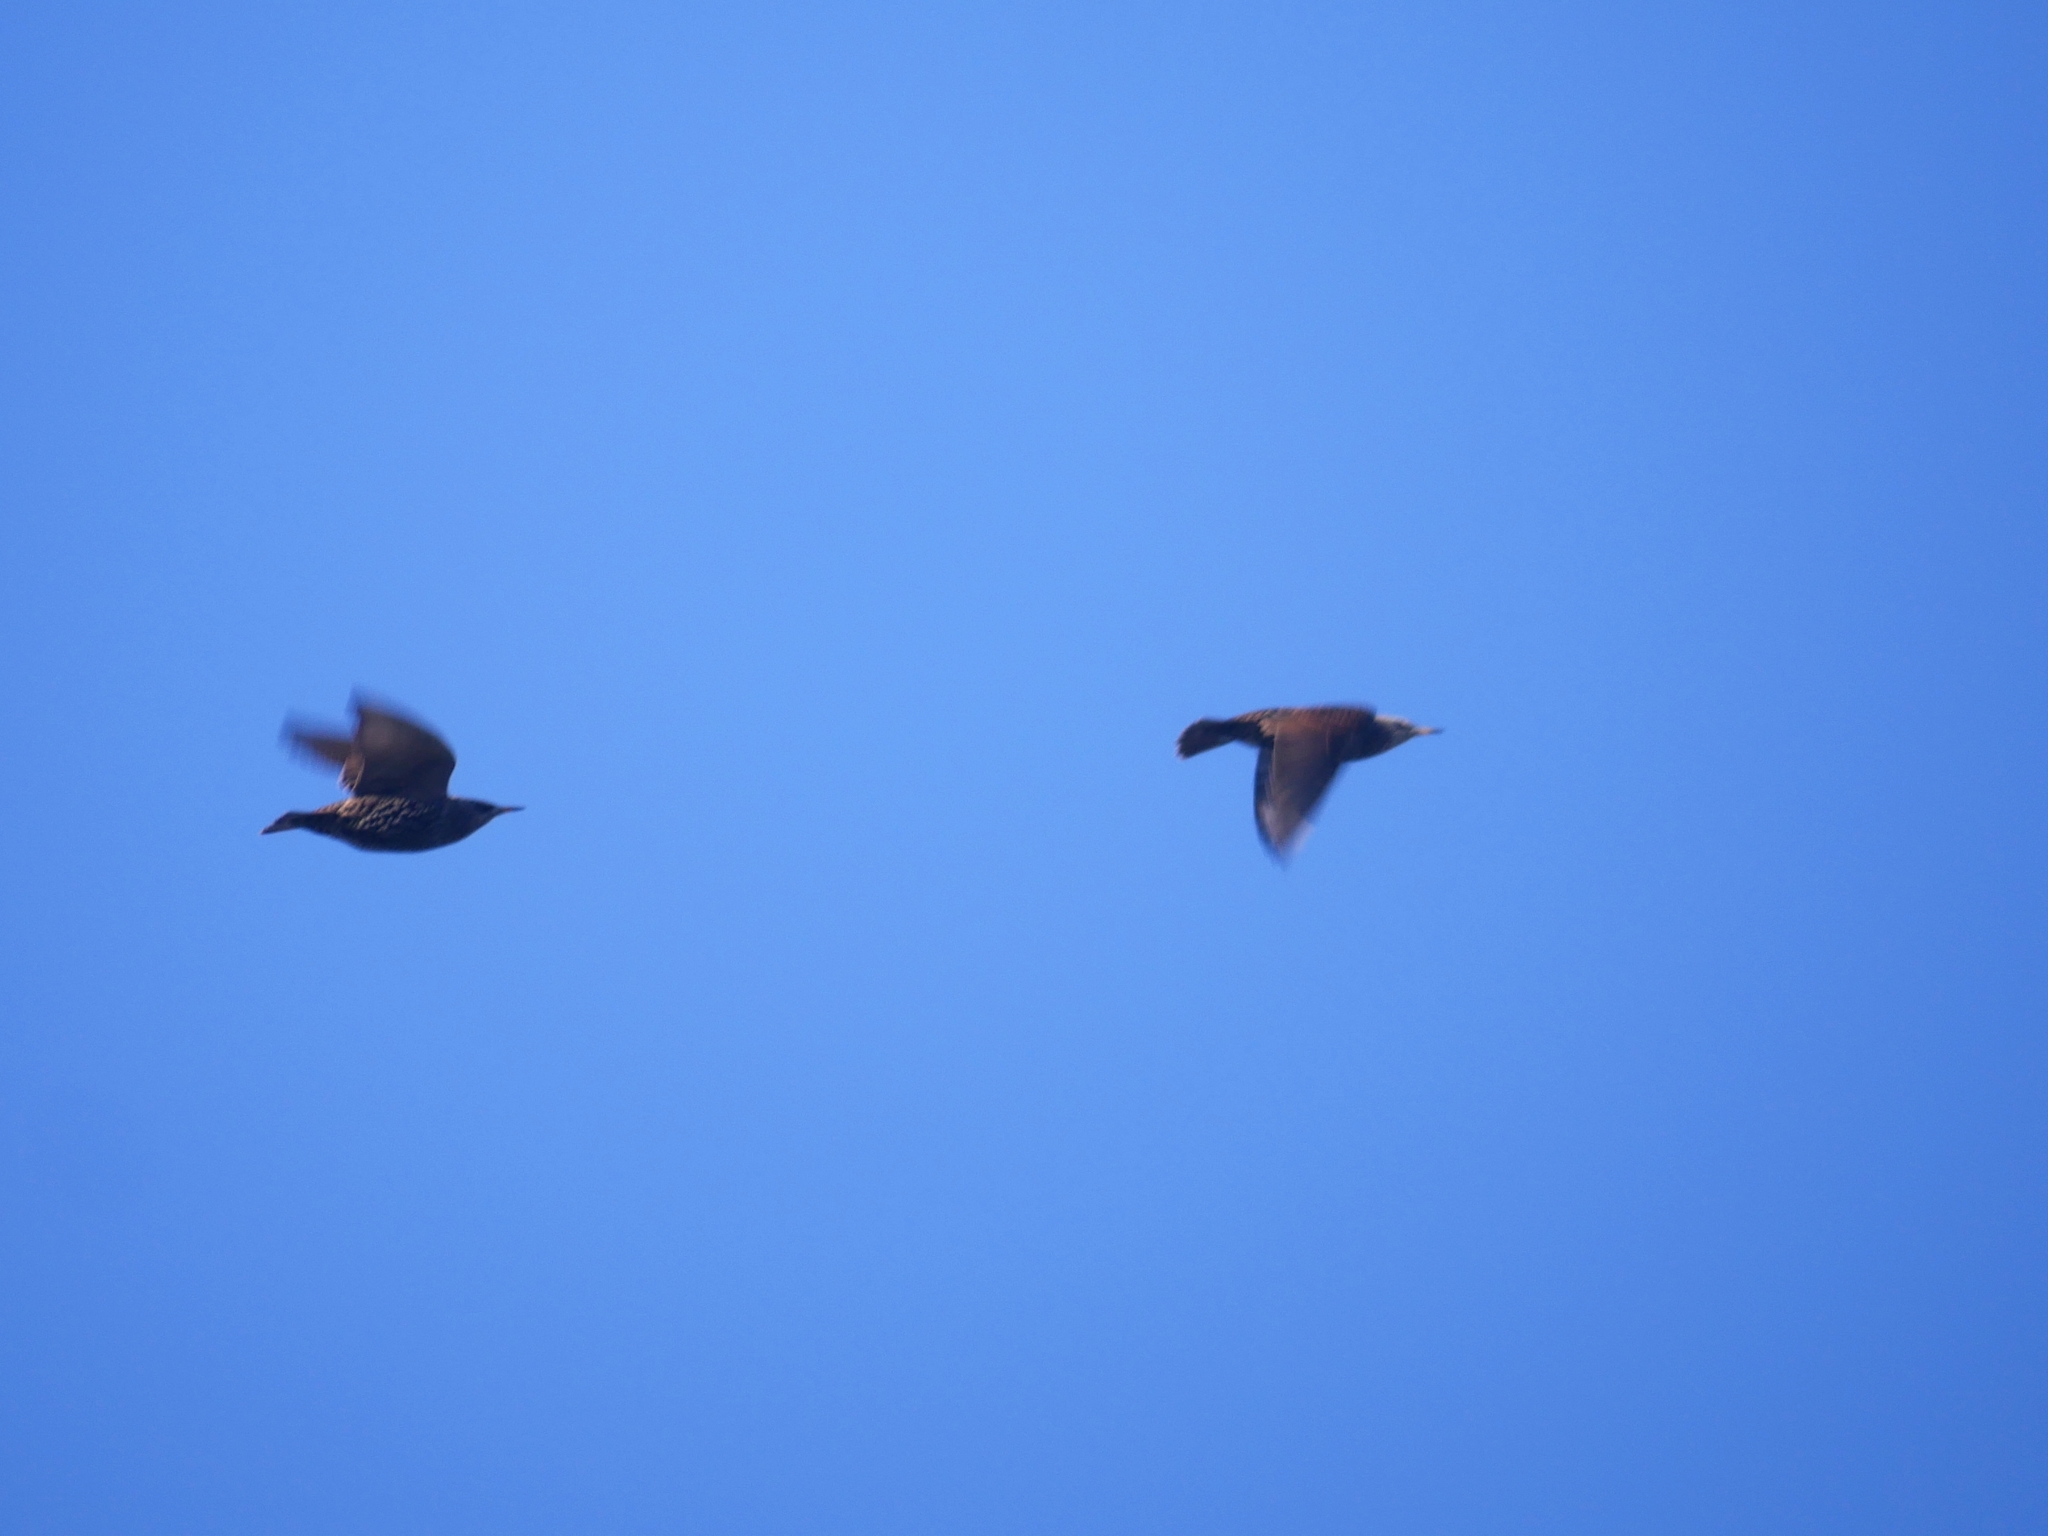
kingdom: Animalia
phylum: Chordata
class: Aves
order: Passeriformes
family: Sturnidae
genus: Sturnus
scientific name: Sturnus vulgaris
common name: Common starling
